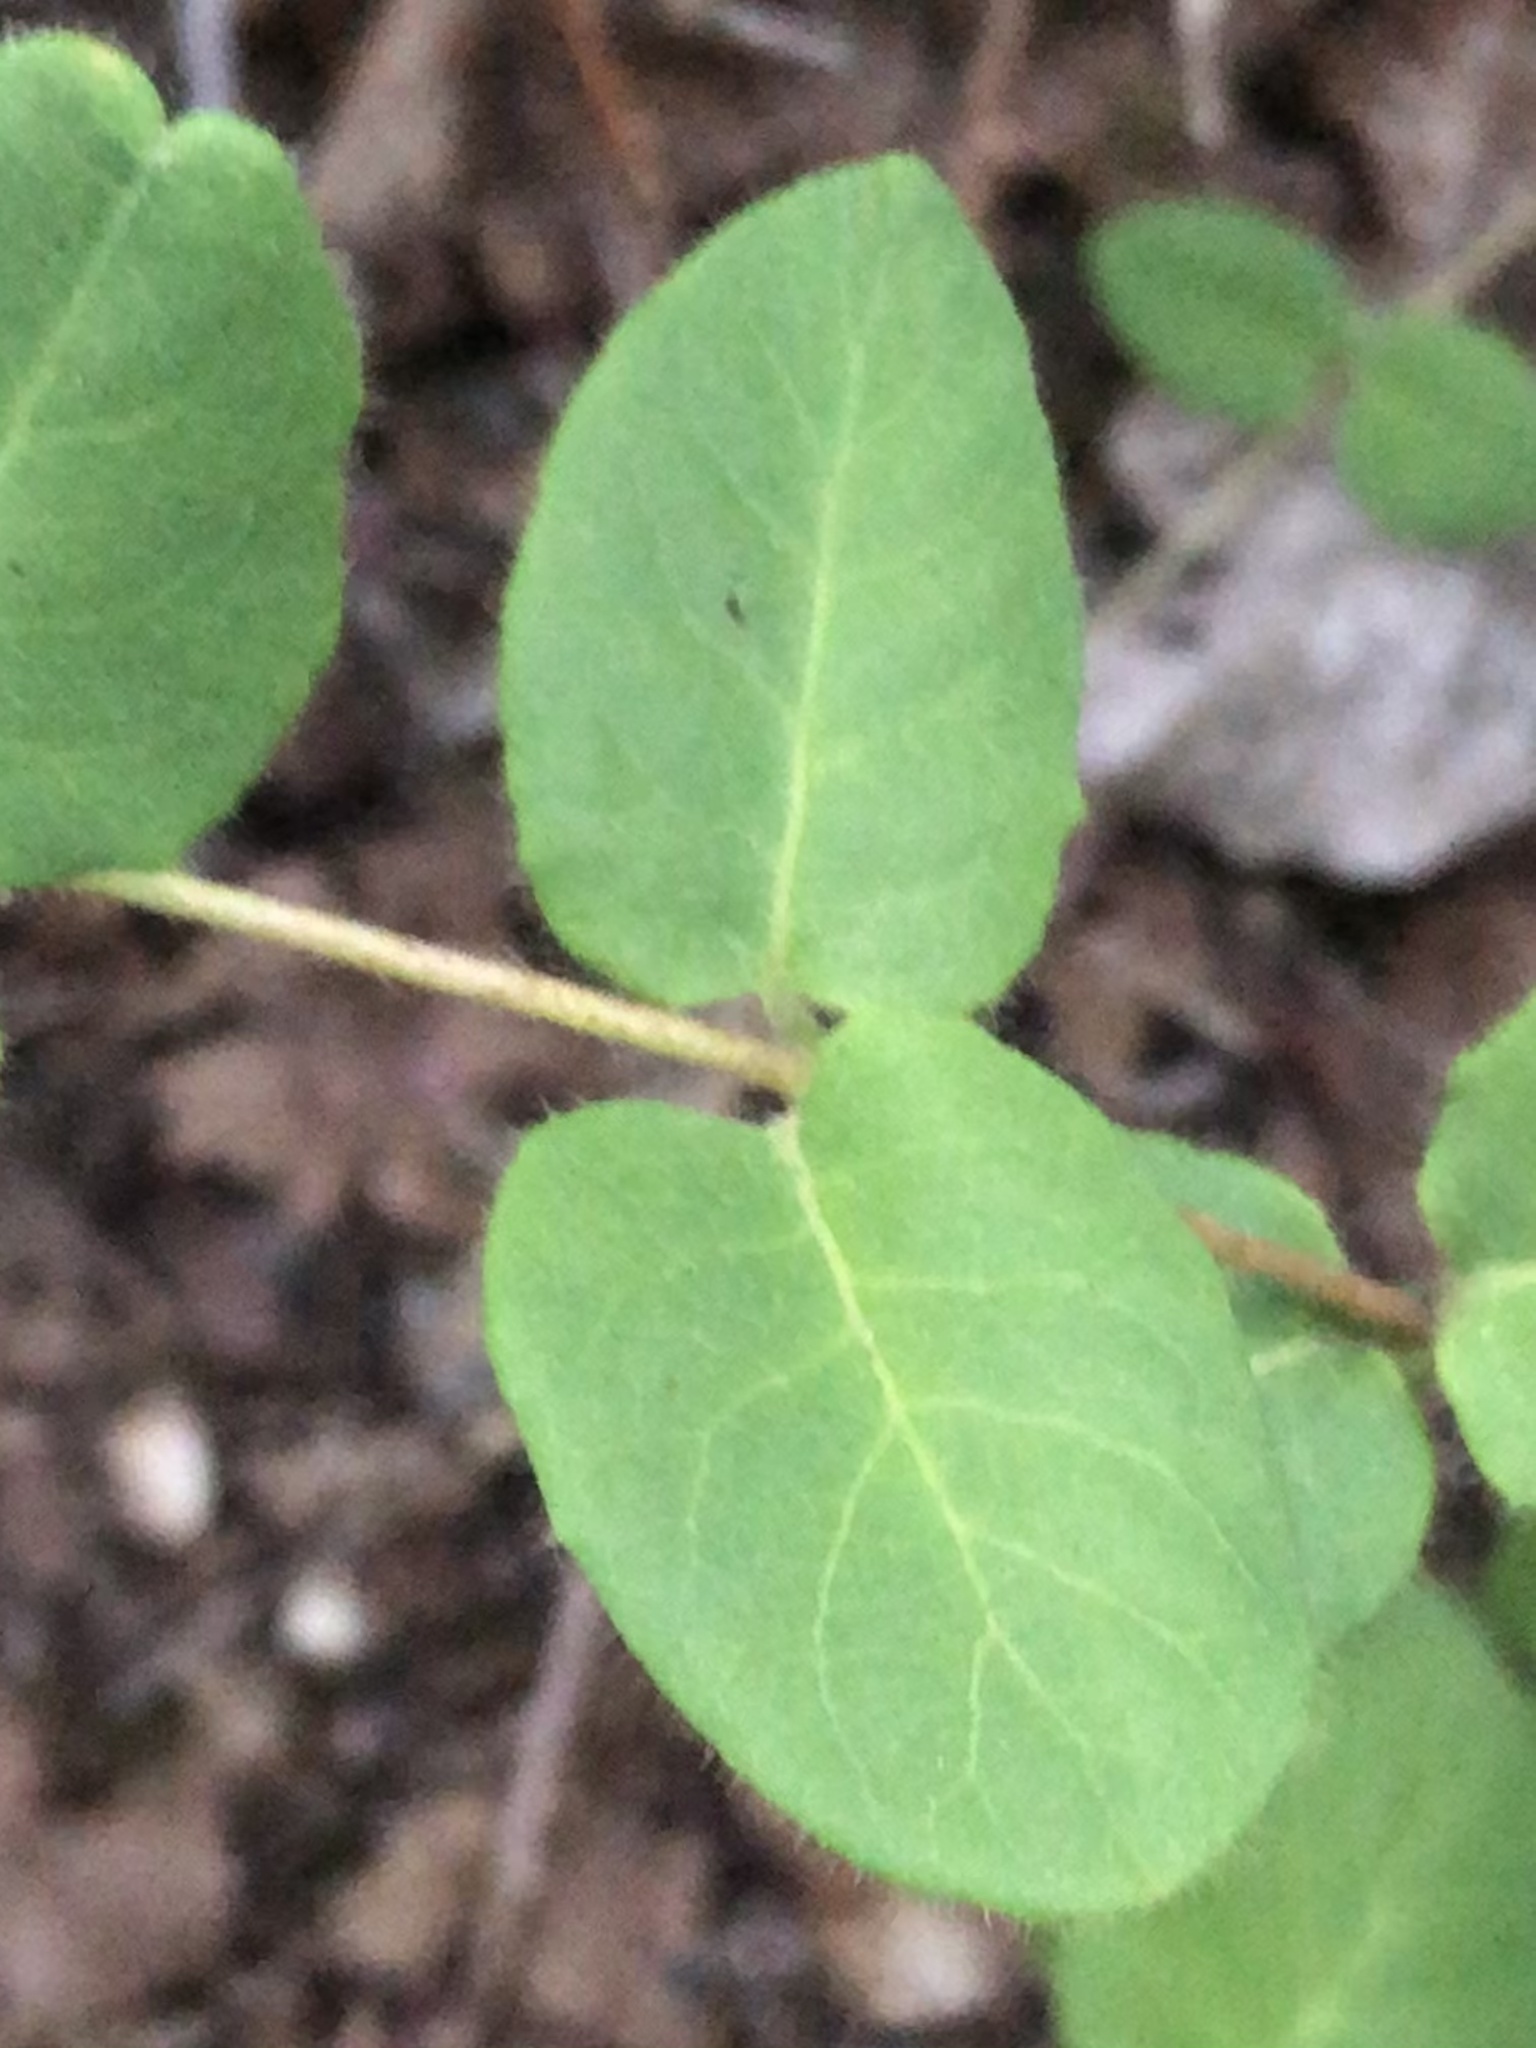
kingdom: Plantae
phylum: Tracheophyta
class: Magnoliopsida
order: Dipsacales
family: Caprifoliaceae
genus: Lonicera
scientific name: Lonicera hispidula
